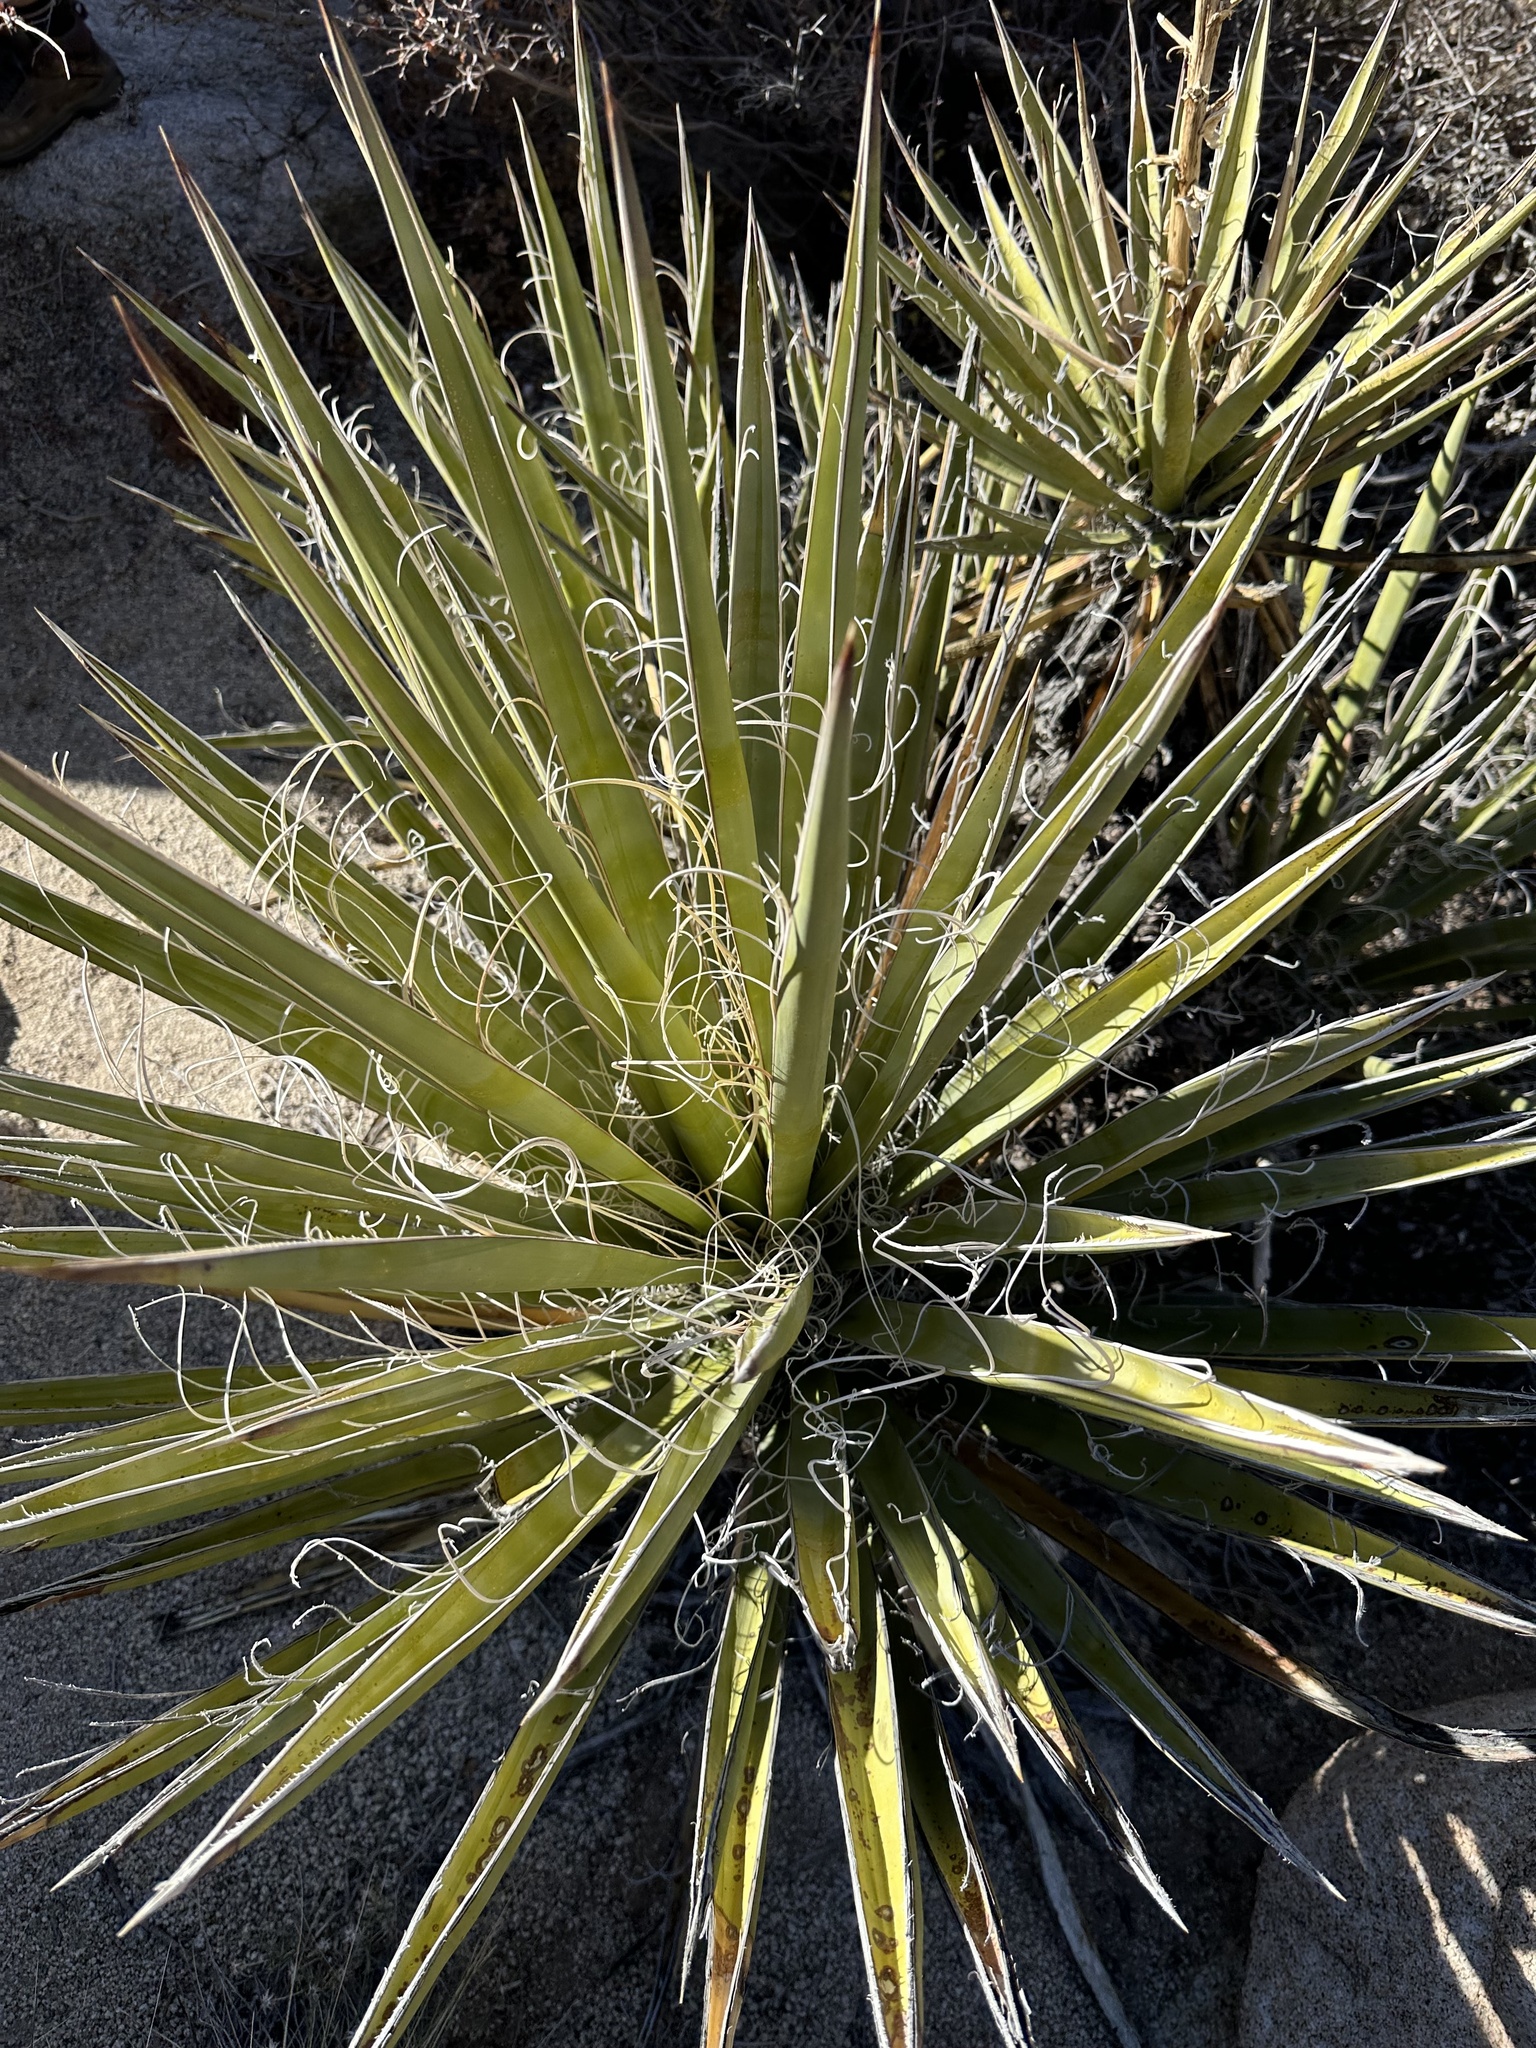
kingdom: Plantae
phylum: Tracheophyta
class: Liliopsida
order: Asparagales
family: Asparagaceae
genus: Yucca
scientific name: Yucca schidigera
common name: Mojave yucca
